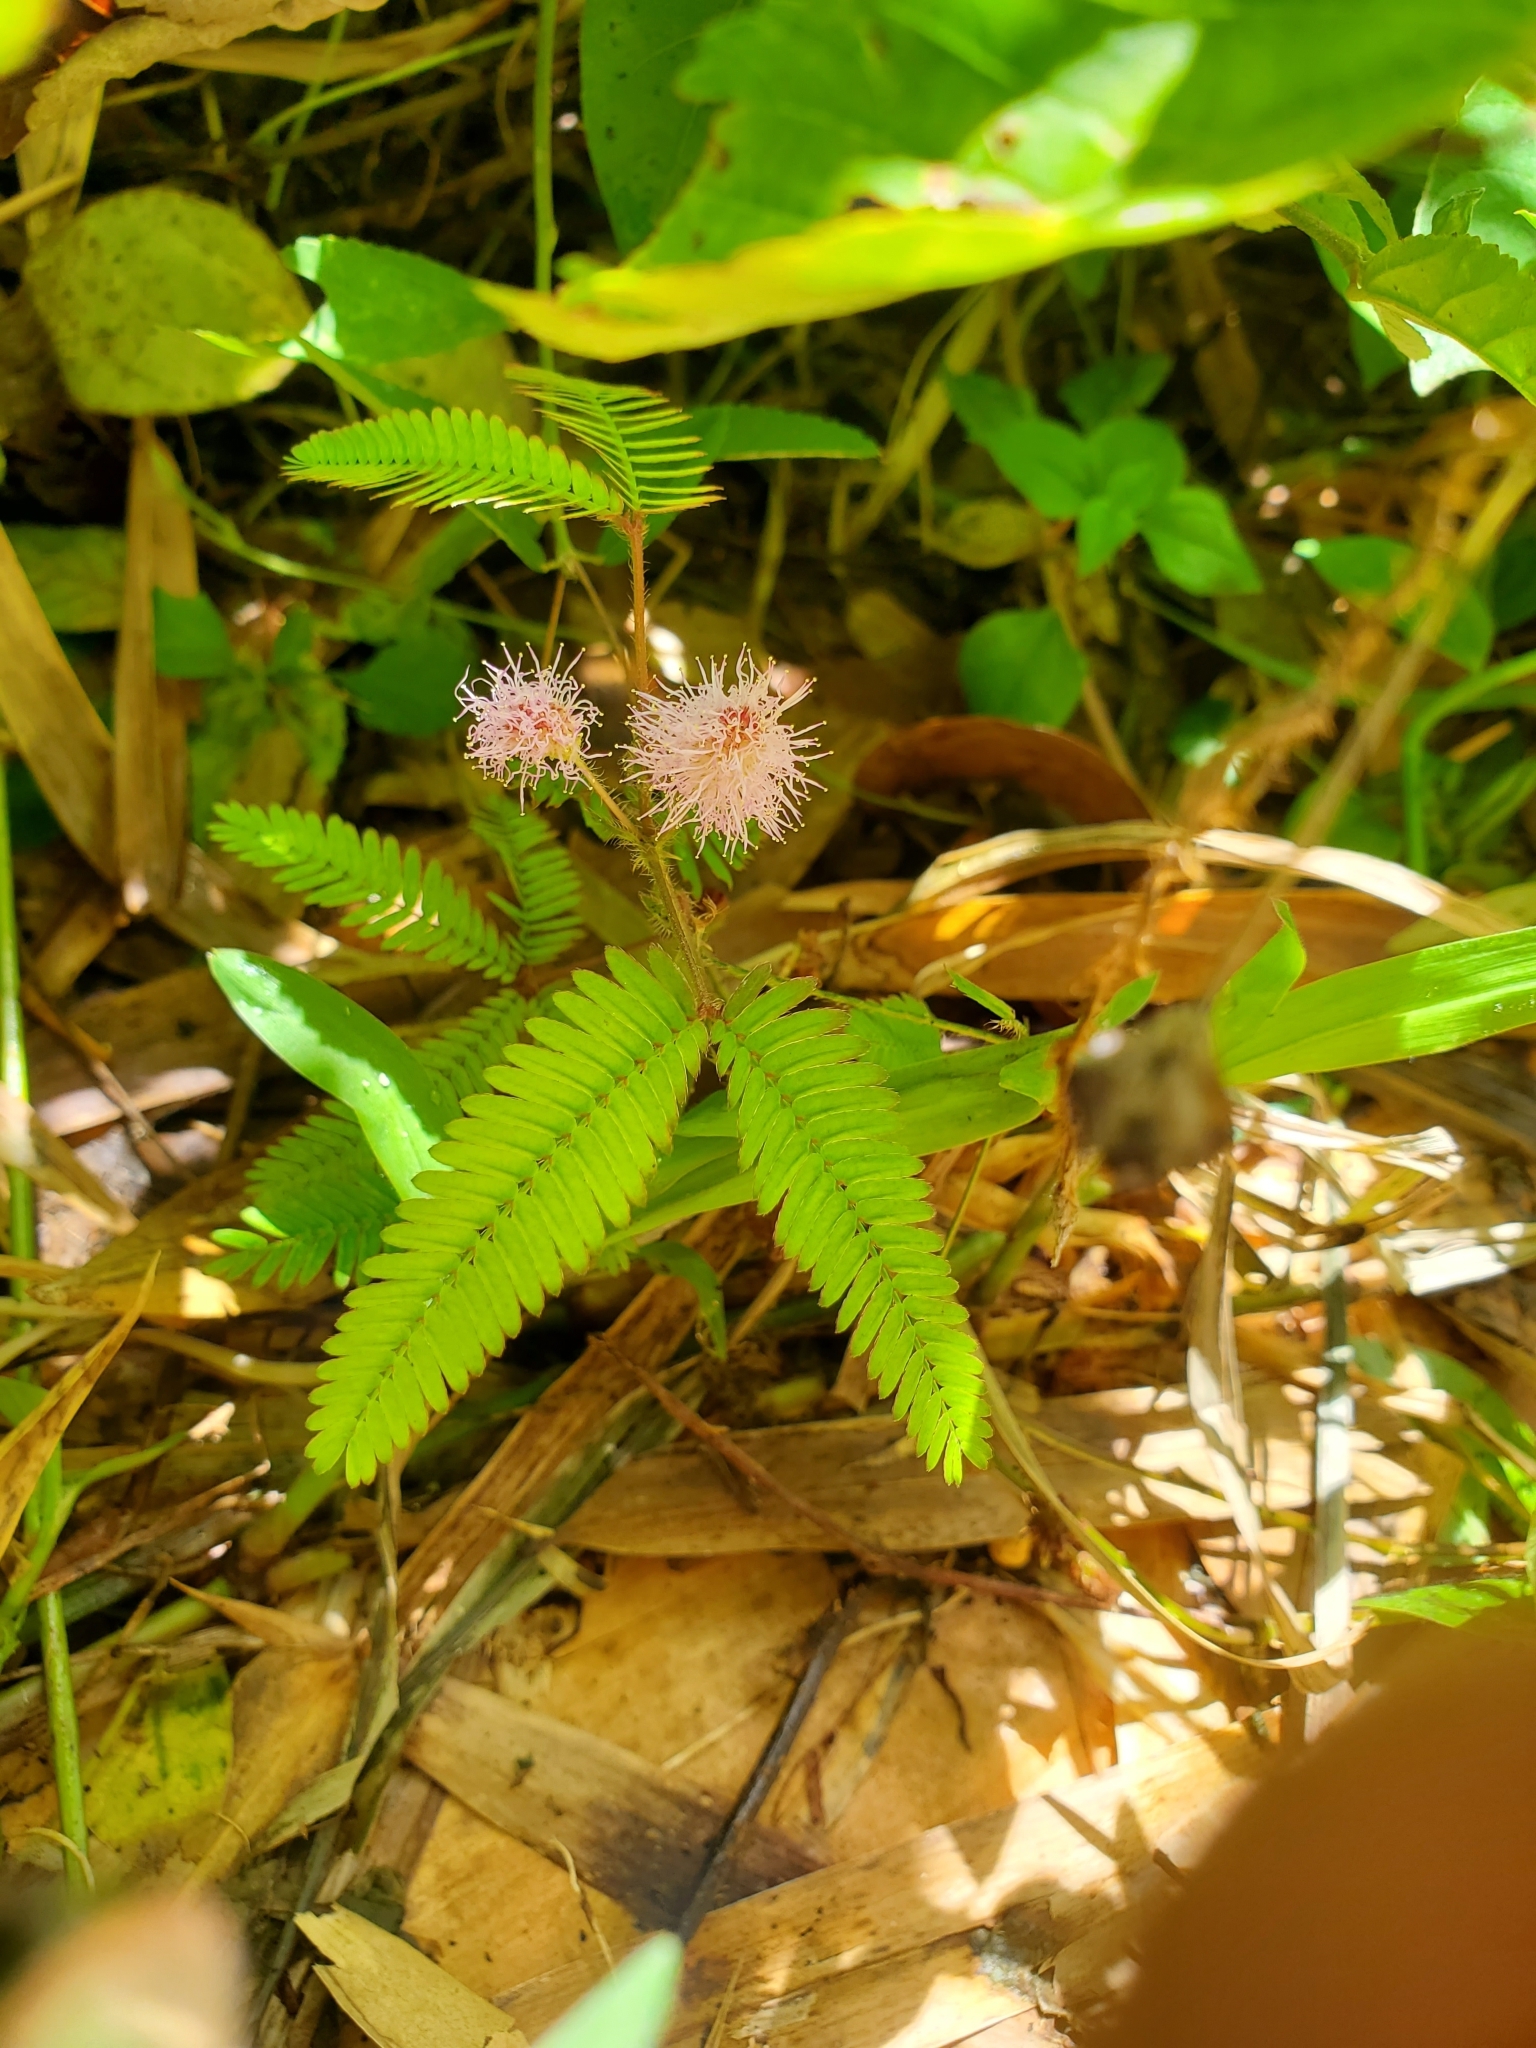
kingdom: Plantae
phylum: Tracheophyta
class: Magnoliopsida
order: Fabales
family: Fabaceae
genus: Mimosa
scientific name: Mimosa pudica
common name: Sensitive plant
